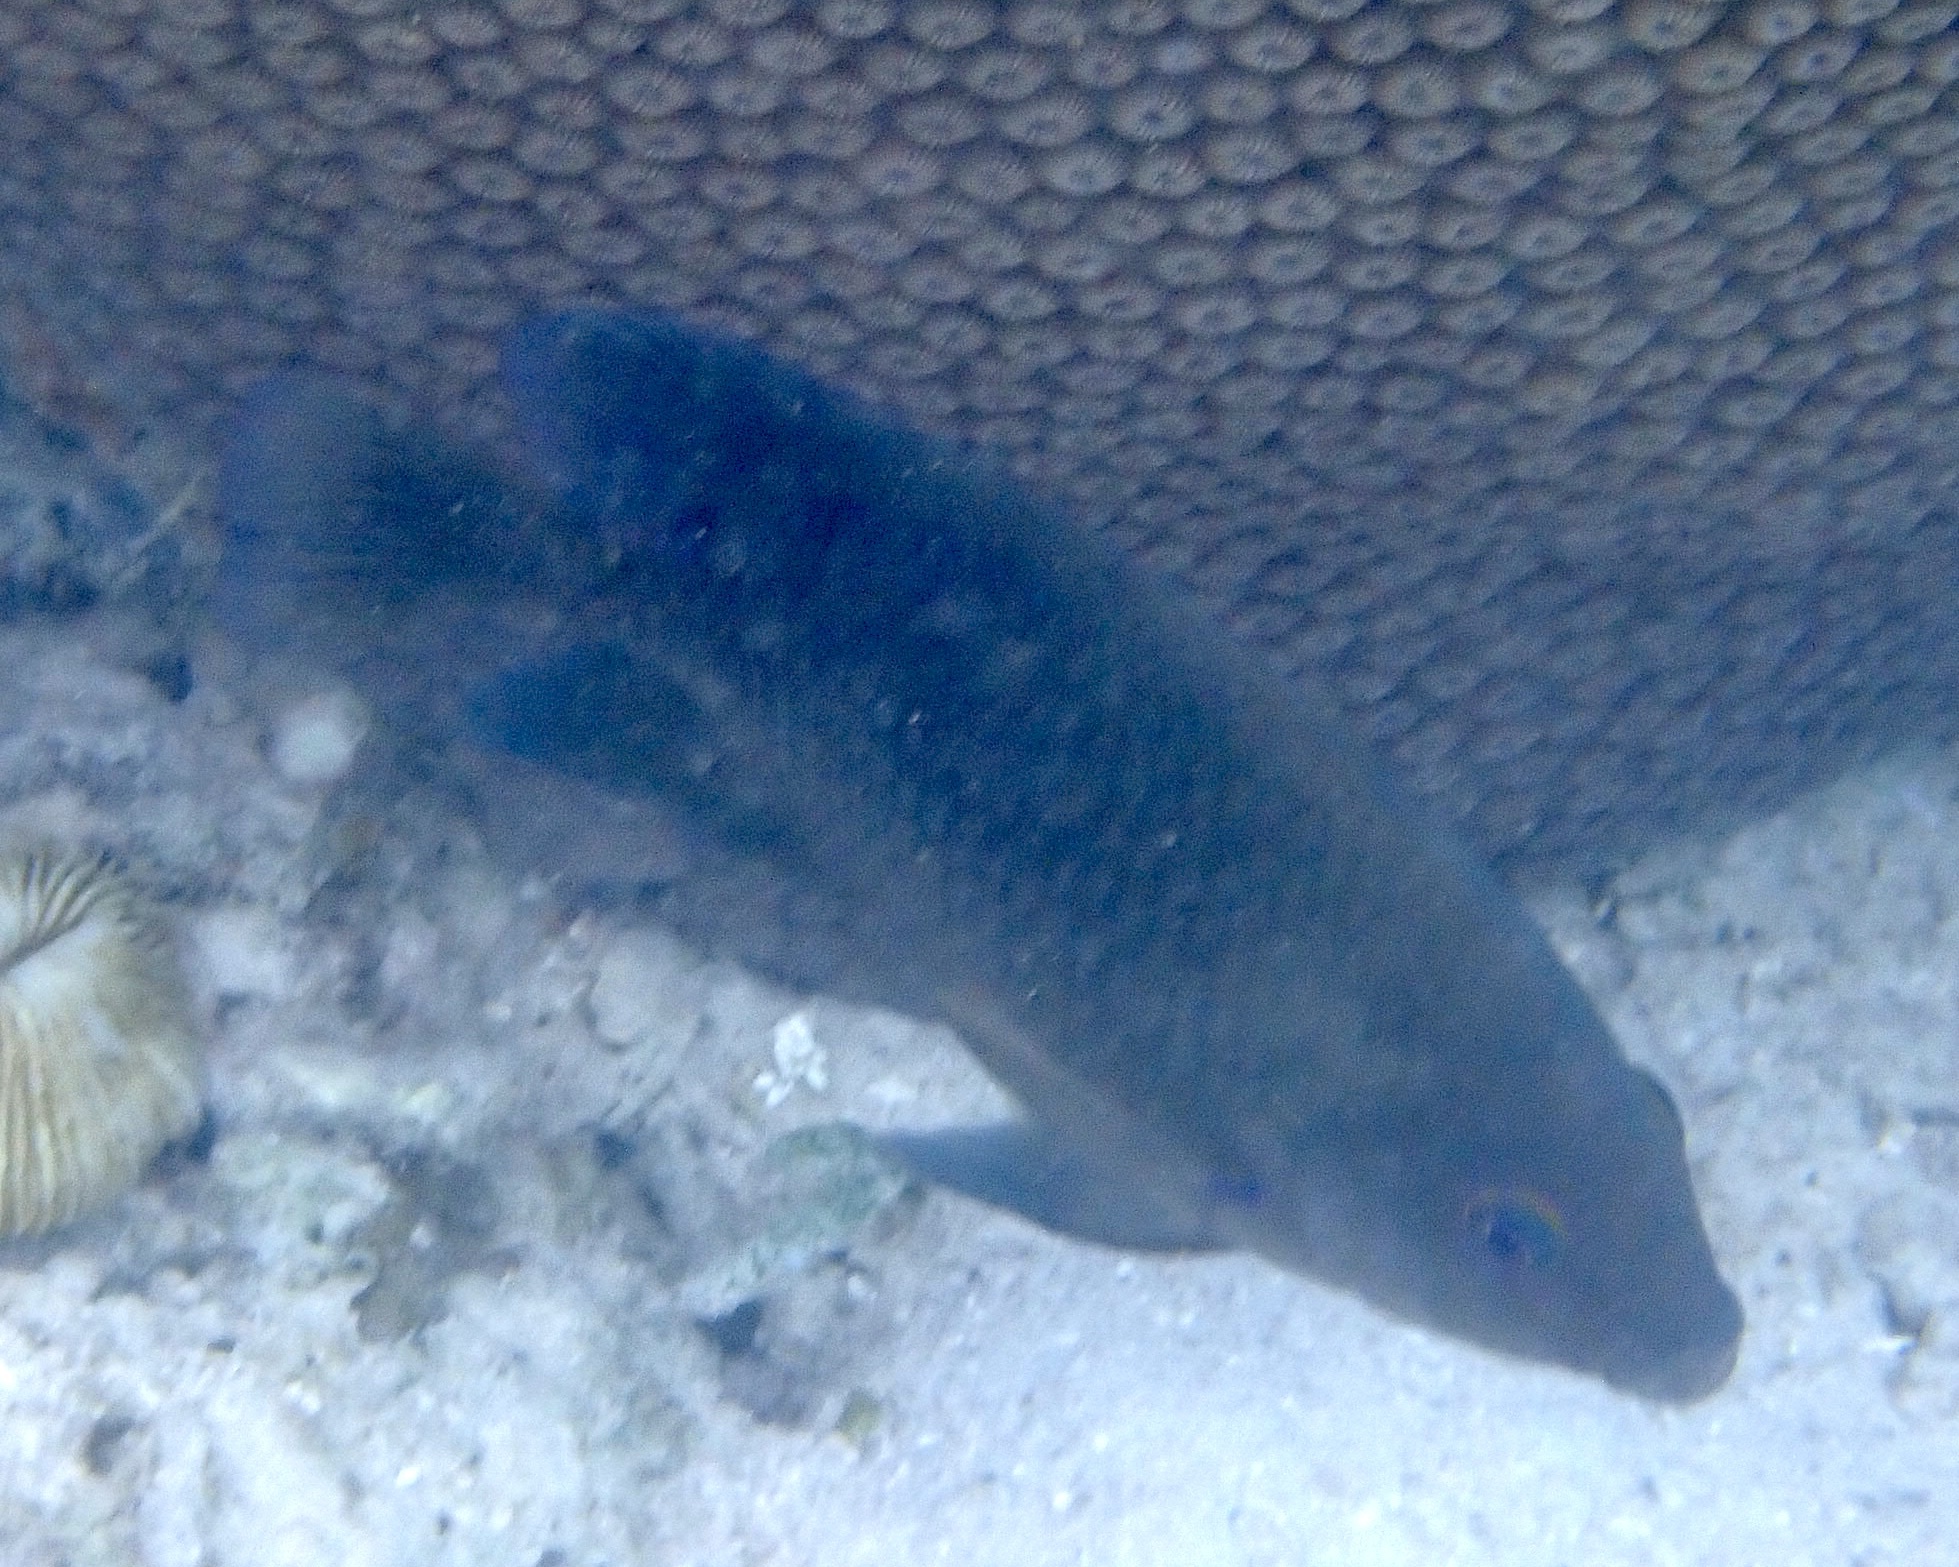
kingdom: Animalia
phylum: Chordata
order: Perciformes
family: Pomacentridae
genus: Hemiglyphidodon
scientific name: Hemiglyphidodon plagiometopon
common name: Lagoon damsel
